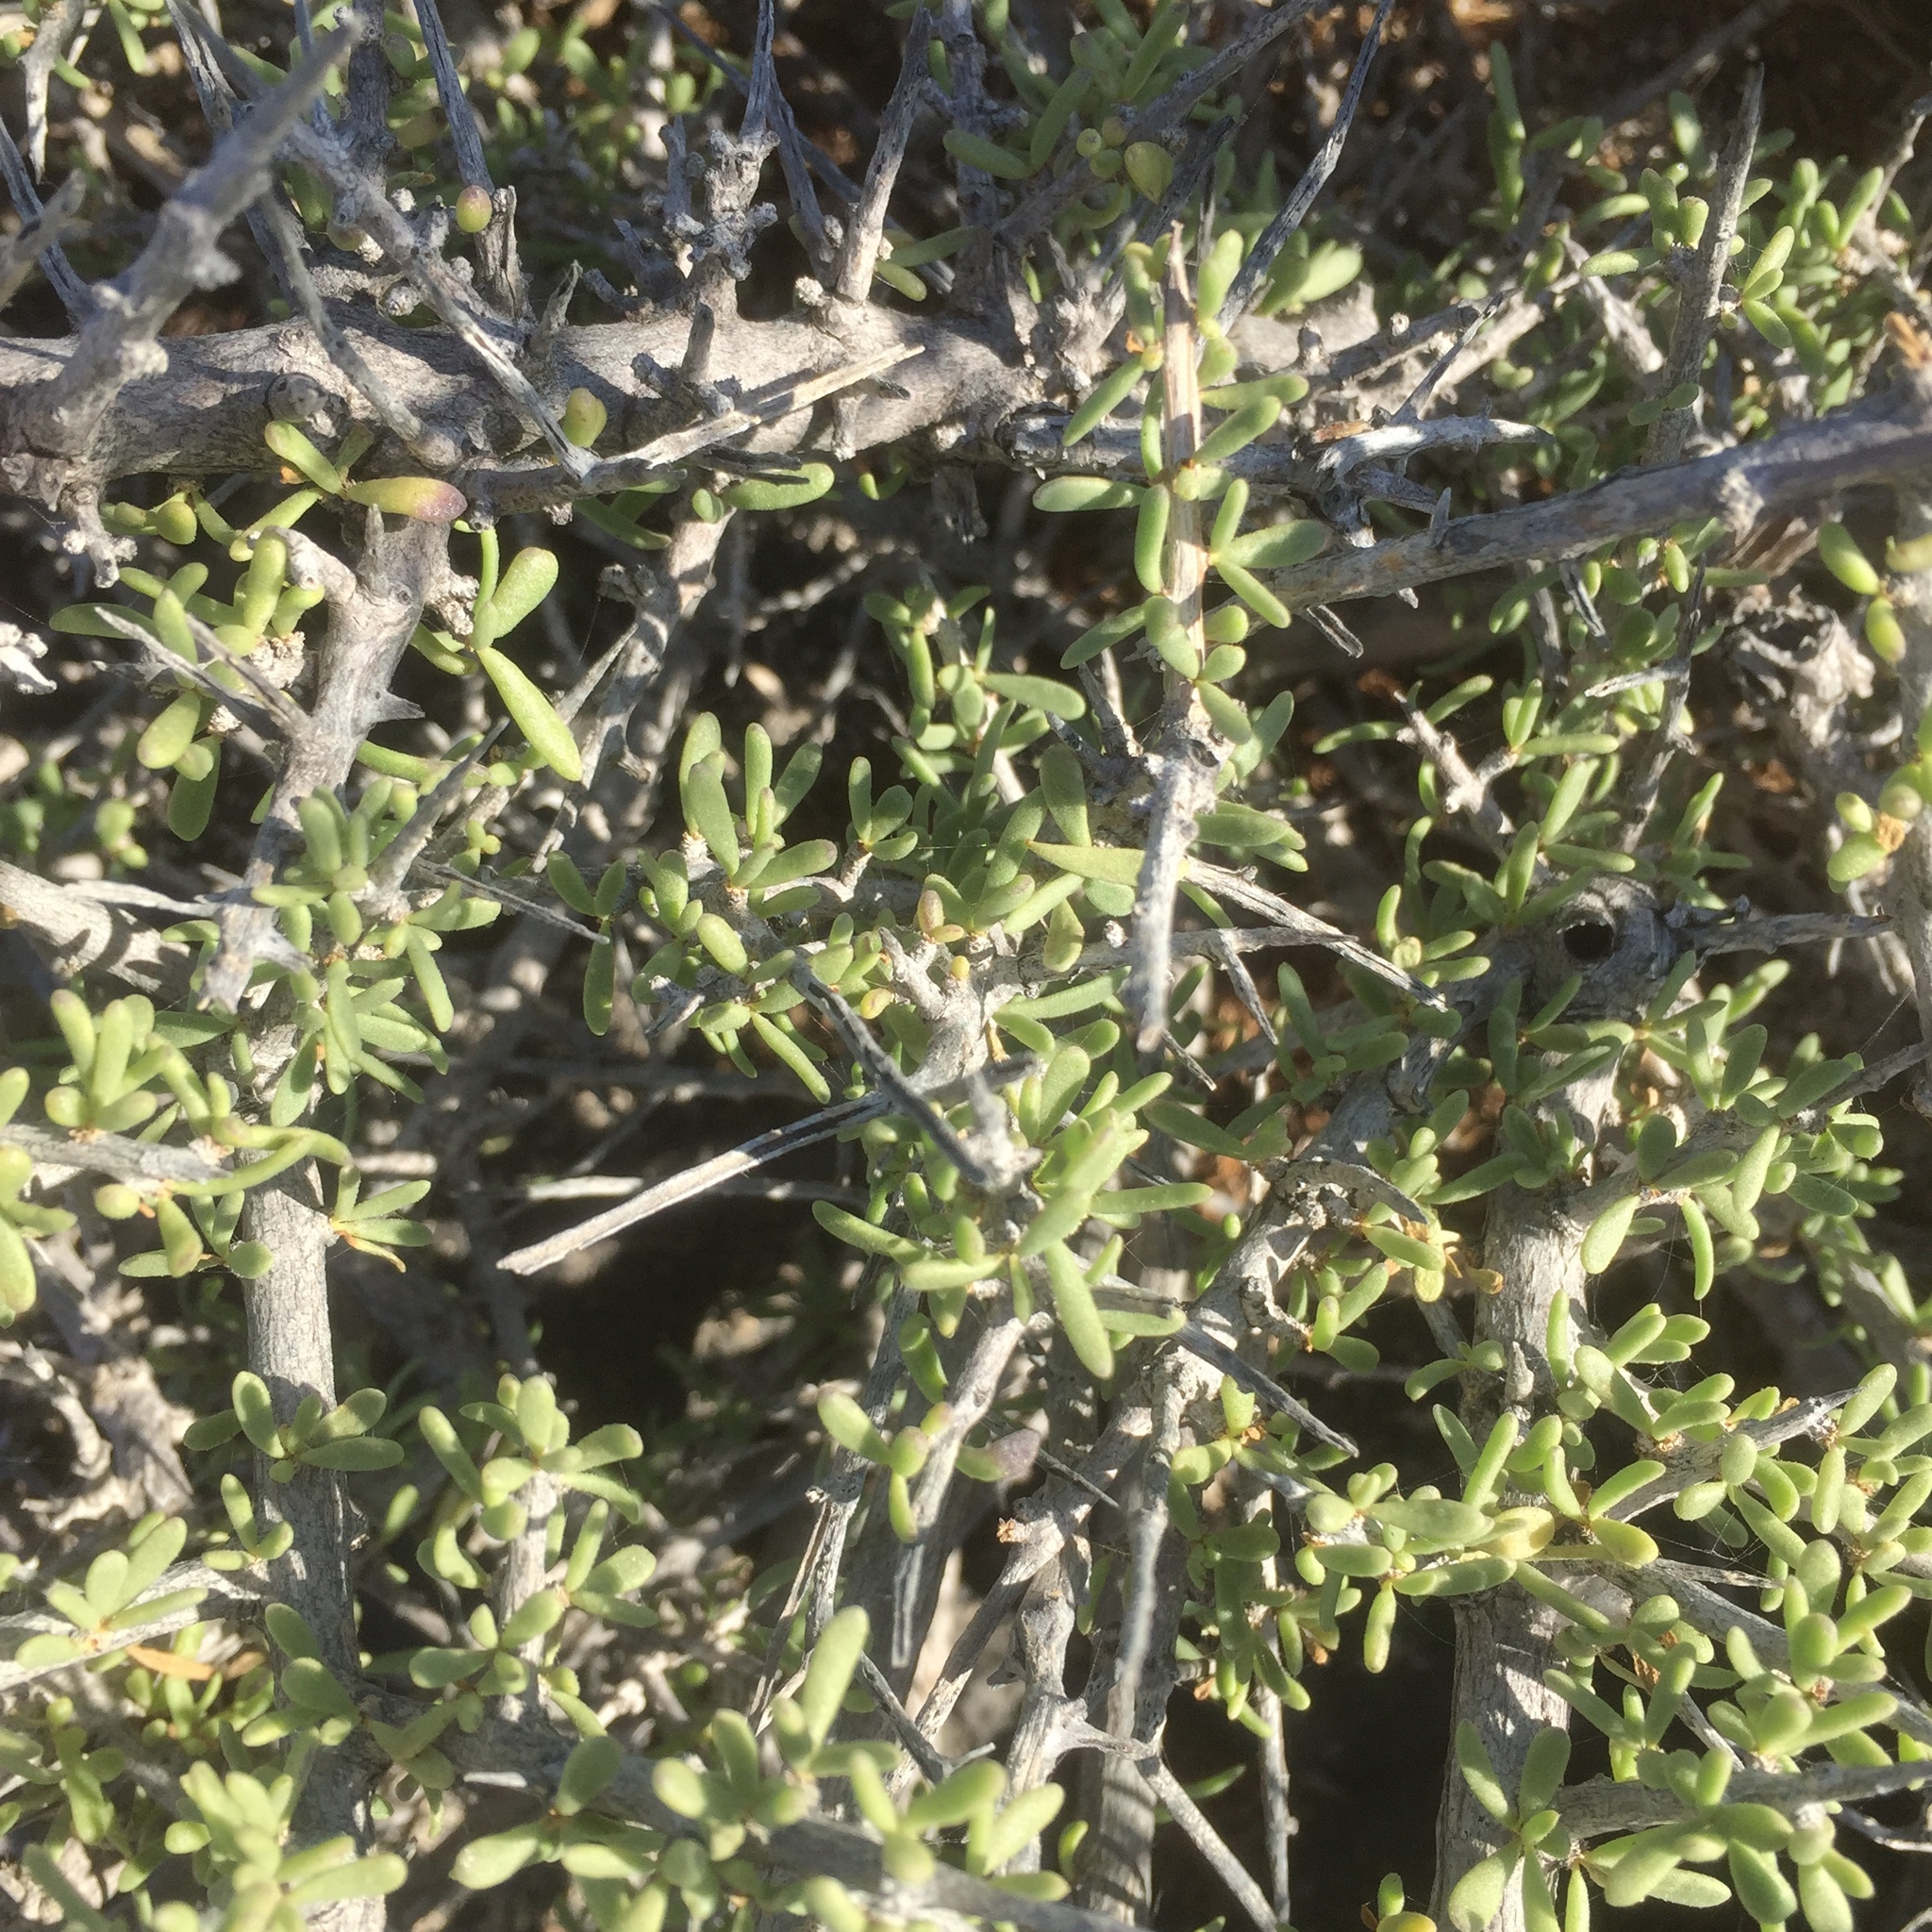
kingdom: Plantae
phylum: Tracheophyta
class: Magnoliopsida
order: Solanales
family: Solanaceae
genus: Lycium
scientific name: Lycium intricatum
